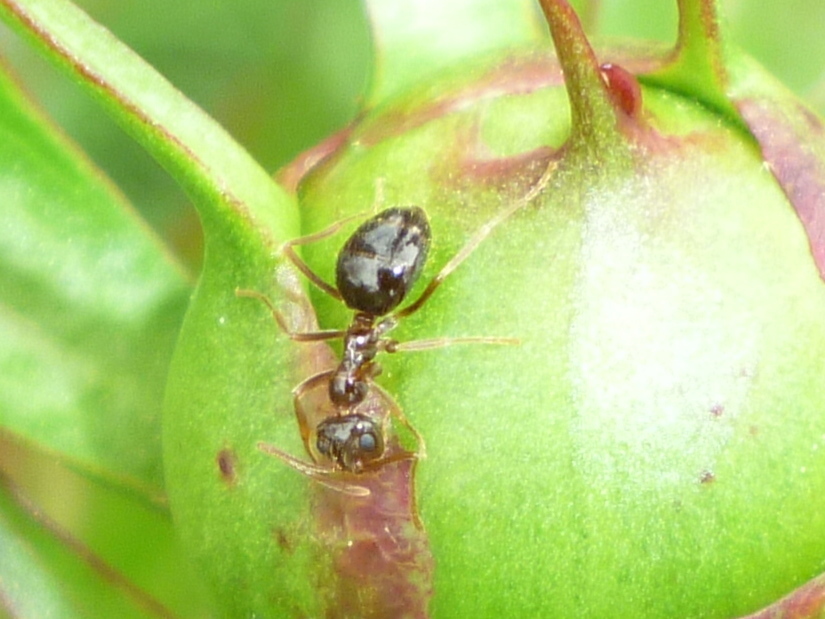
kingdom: Animalia
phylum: Arthropoda
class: Insecta
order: Hymenoptera
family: Formicidae
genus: Prenolepis
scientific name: Prenolepis imparis
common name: Small honey ant
